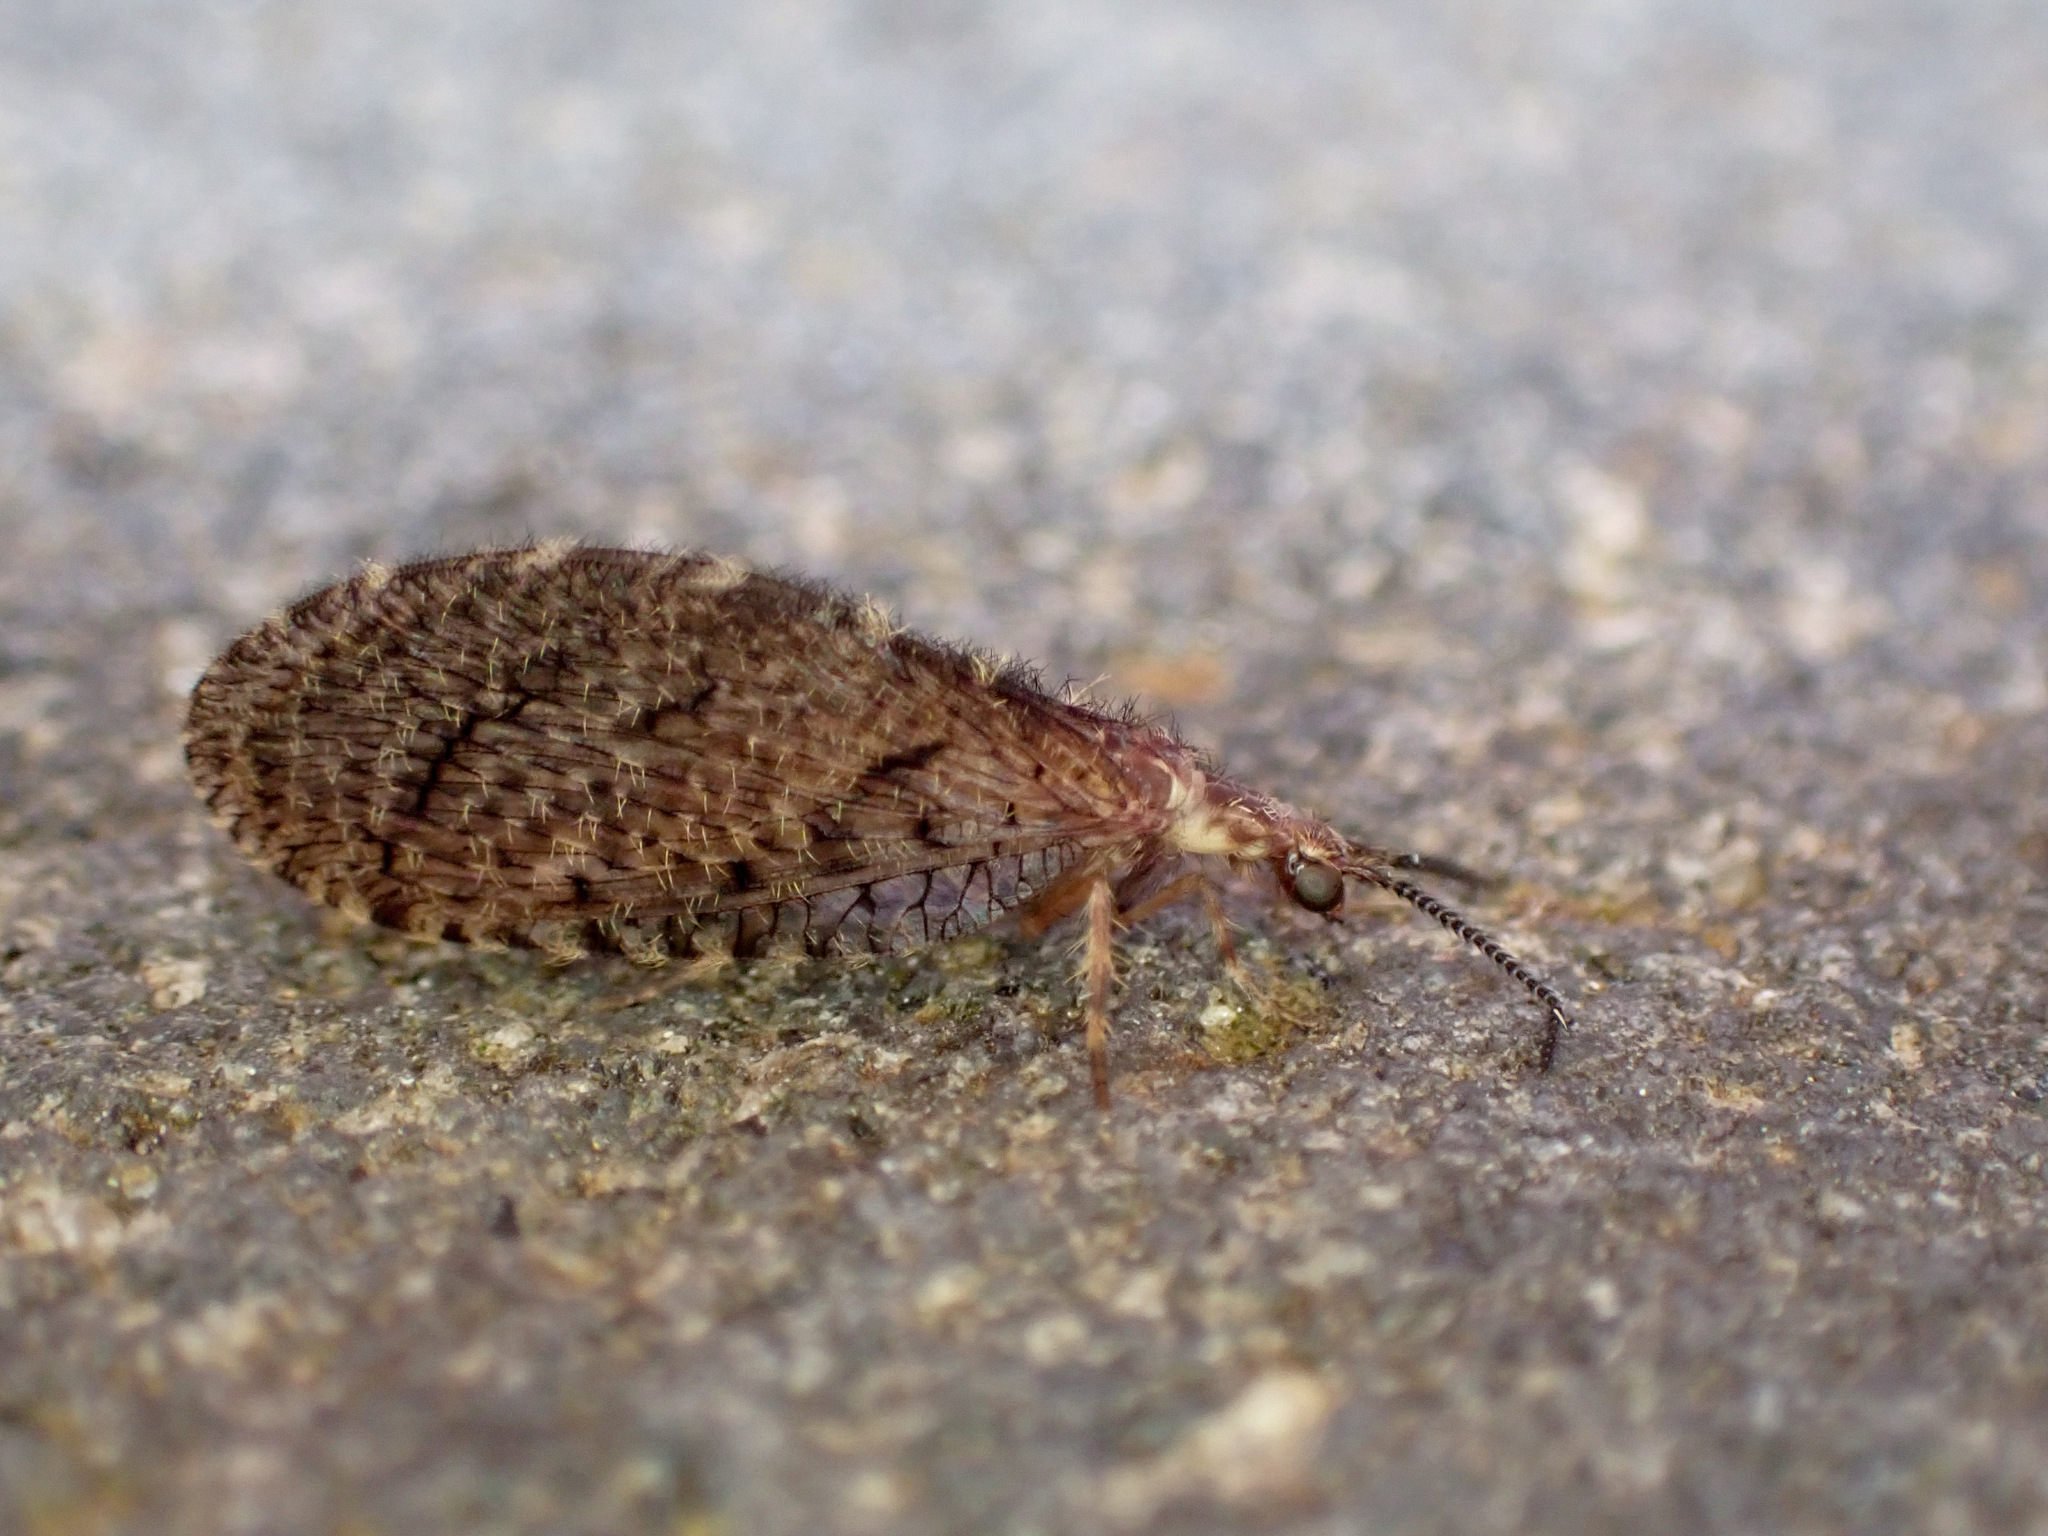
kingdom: Animalia
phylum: Arthropoda
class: Insecta
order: Neuroptera
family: Berothidae
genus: Protobiella
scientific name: Protobiella zelandica
